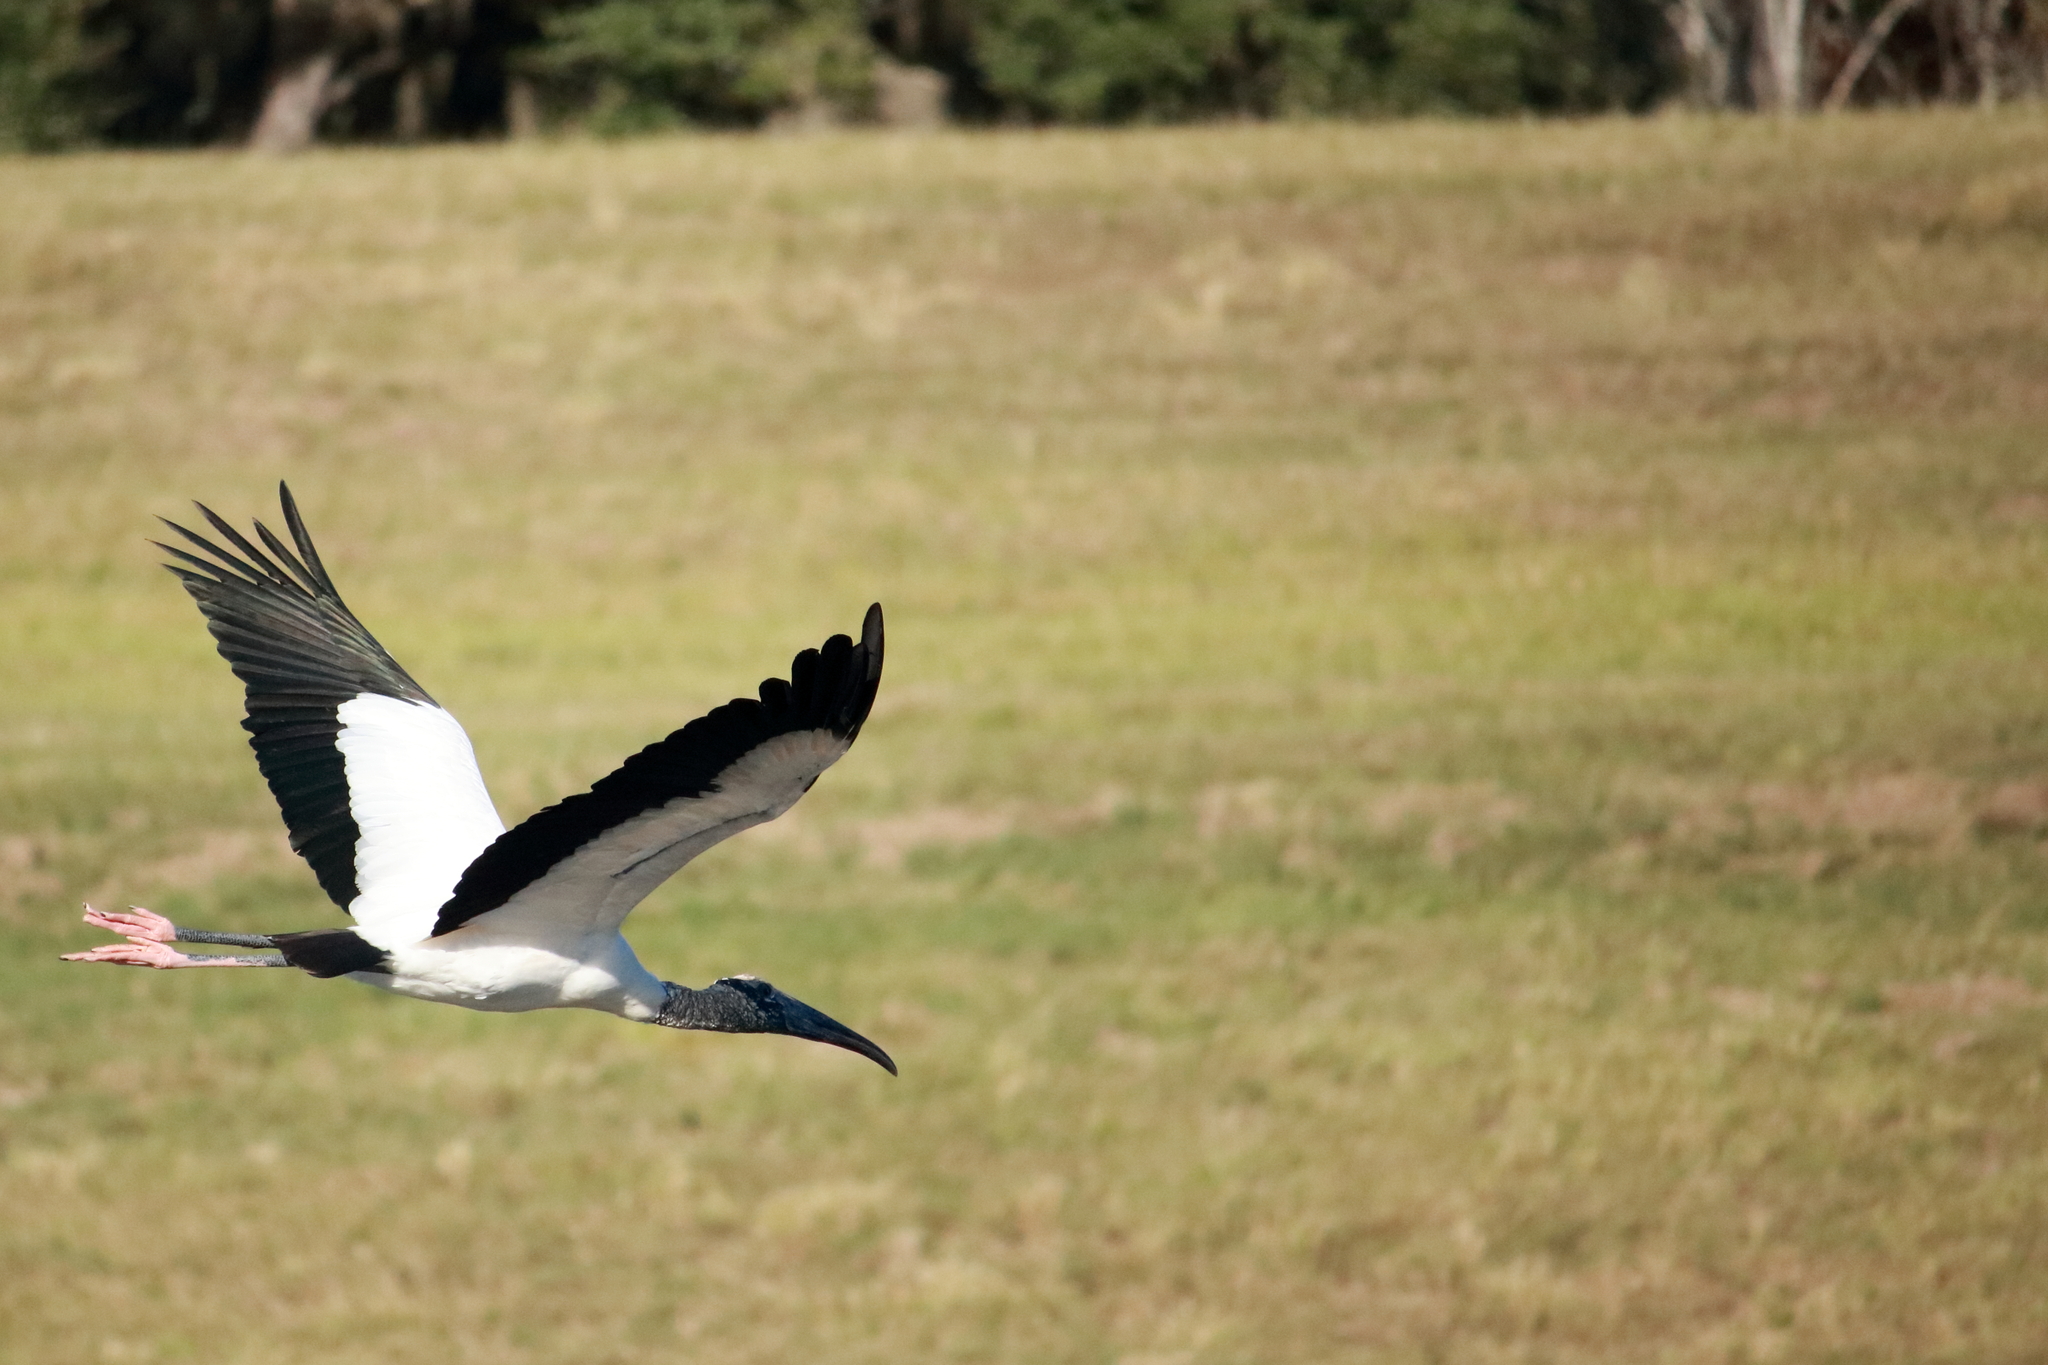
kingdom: Animalia
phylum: Chordata
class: Aves
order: Ciconiiformes
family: Ciconiidae
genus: Mycteria
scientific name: Mycteria americana
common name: Wood stork
